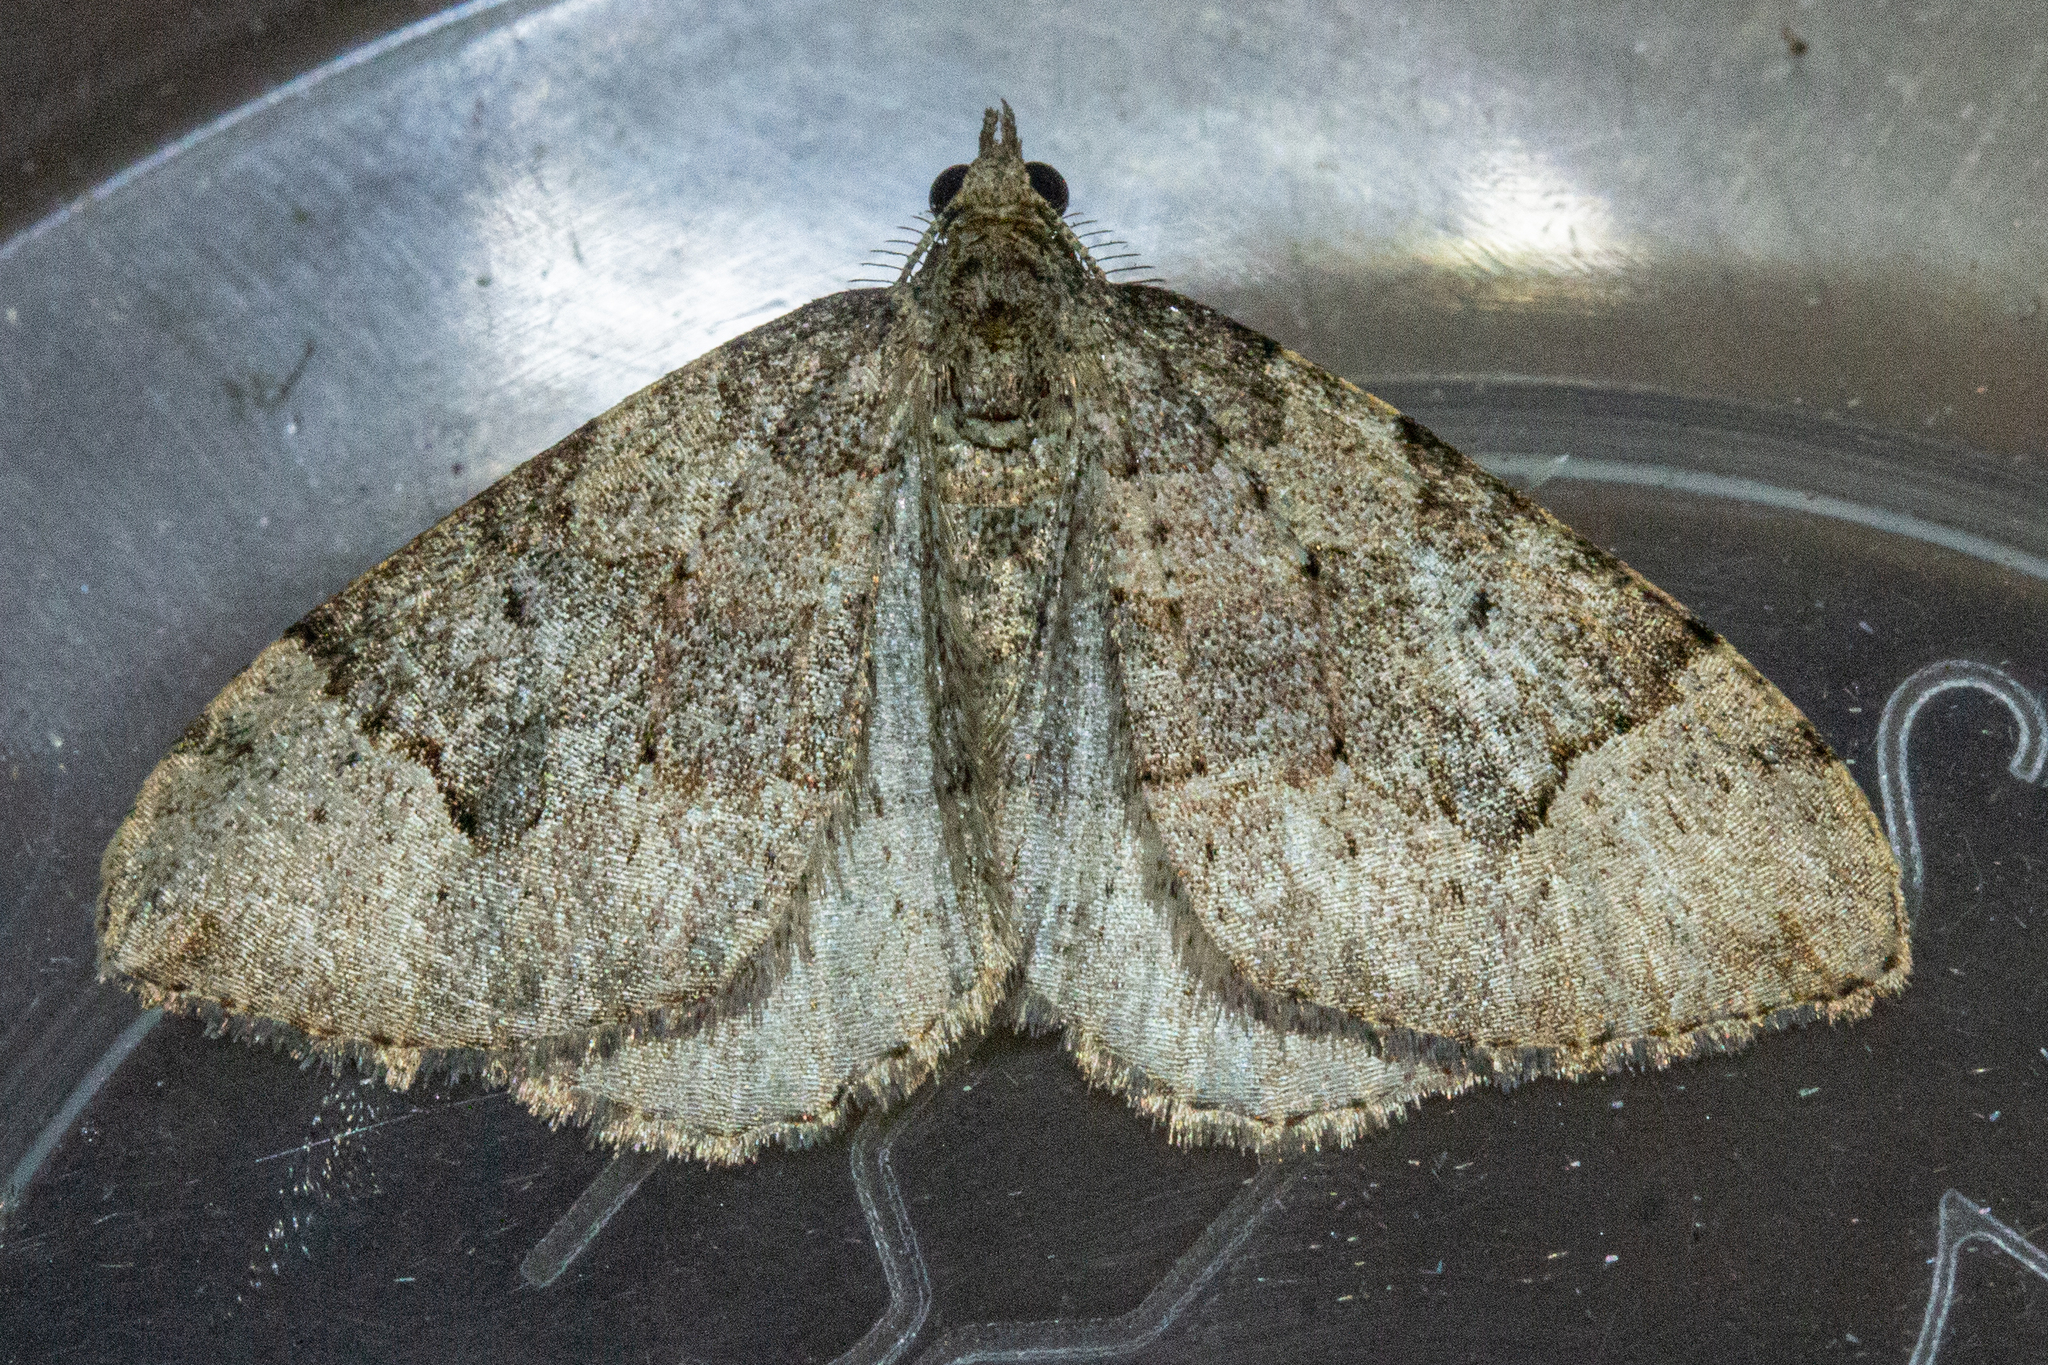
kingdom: Animalia
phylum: Arthropoda
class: Insecta
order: Lepidoptera
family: Geometridae
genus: Epyaxa
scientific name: Epyaxa rosearia
